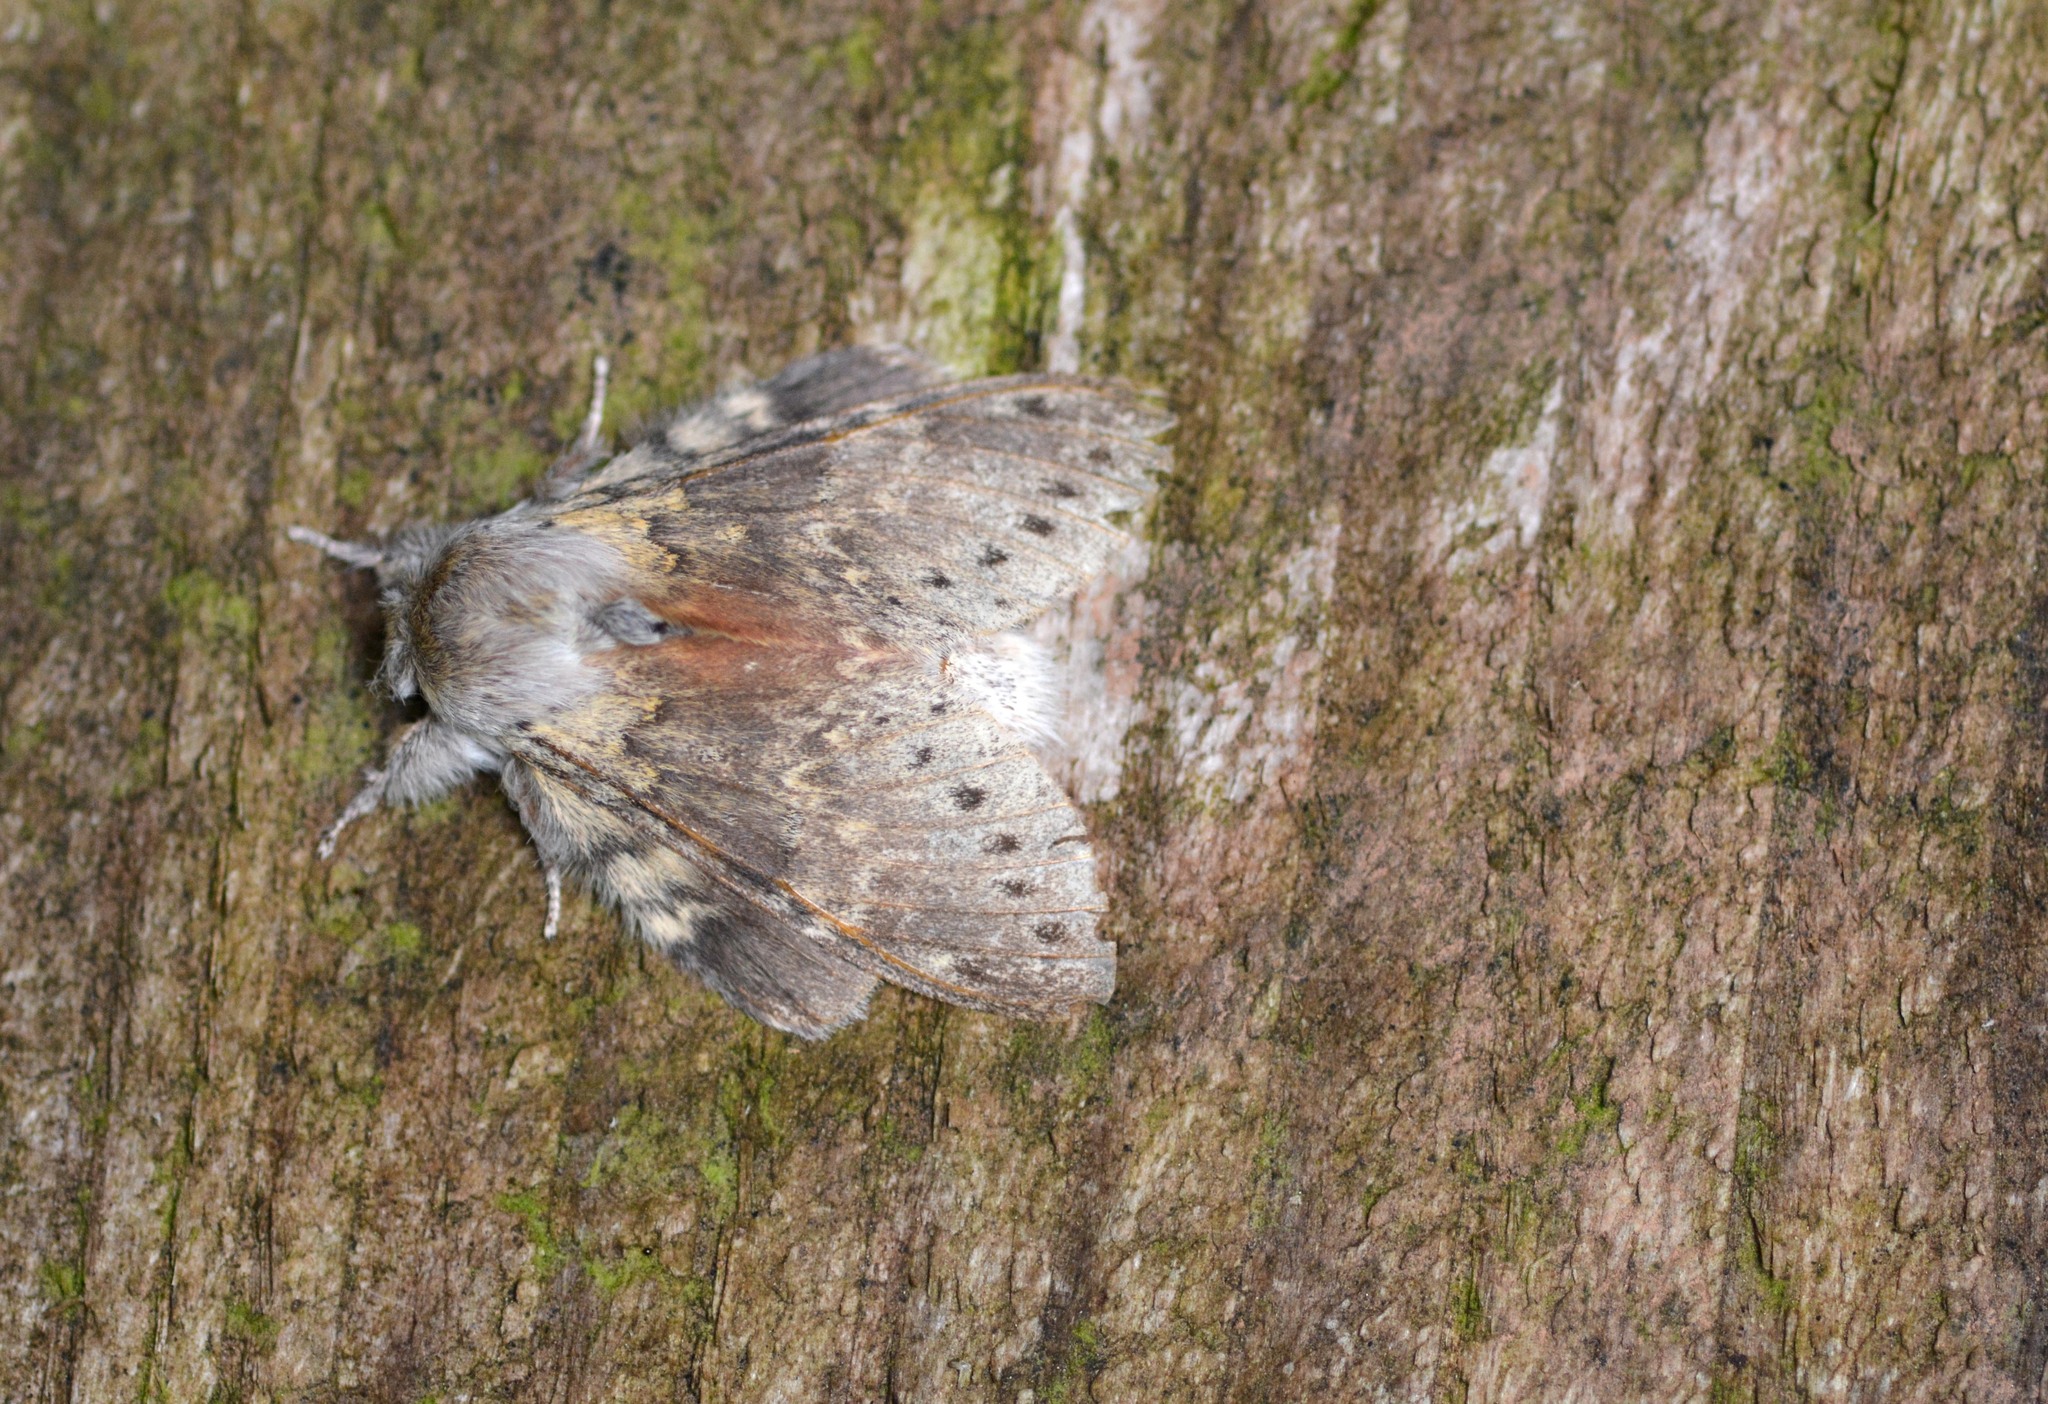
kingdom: Animalia
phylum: Arthropoda
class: Insecta
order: Lepidoptera
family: Notodontidae
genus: Stauropus
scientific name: Stauropus fagi
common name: Lobster moth
